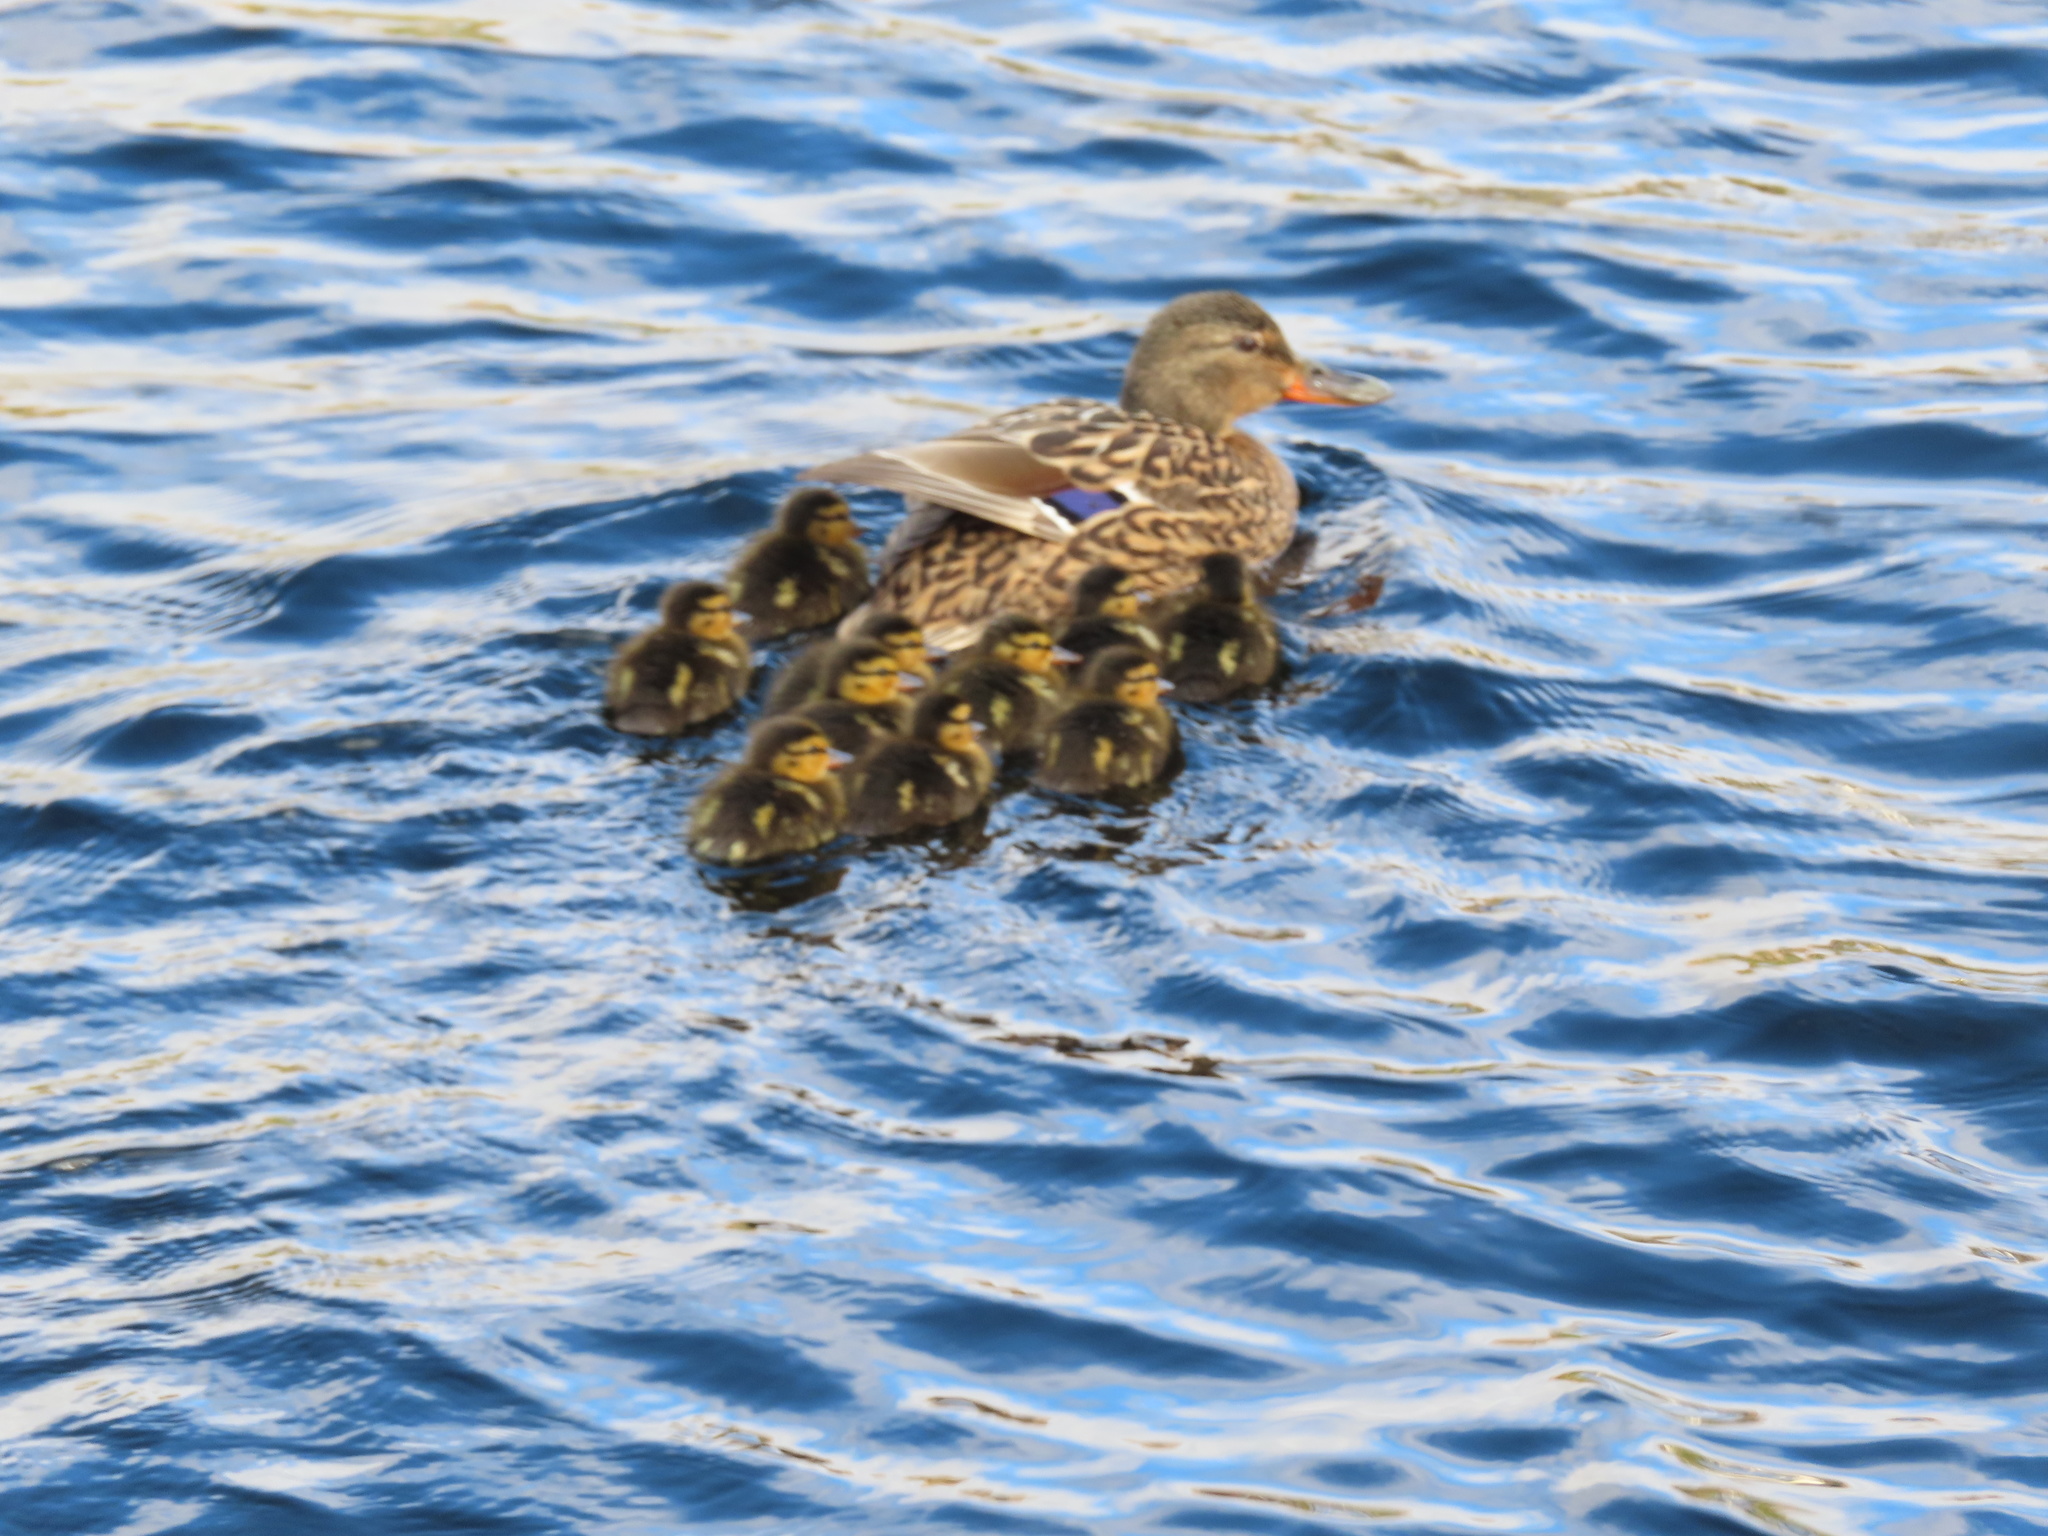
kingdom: Animalia
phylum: Chordata
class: Aves
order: Anseriformes
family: Anatidae
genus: Anas
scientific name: Anas platyrhynchos
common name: Mallard
